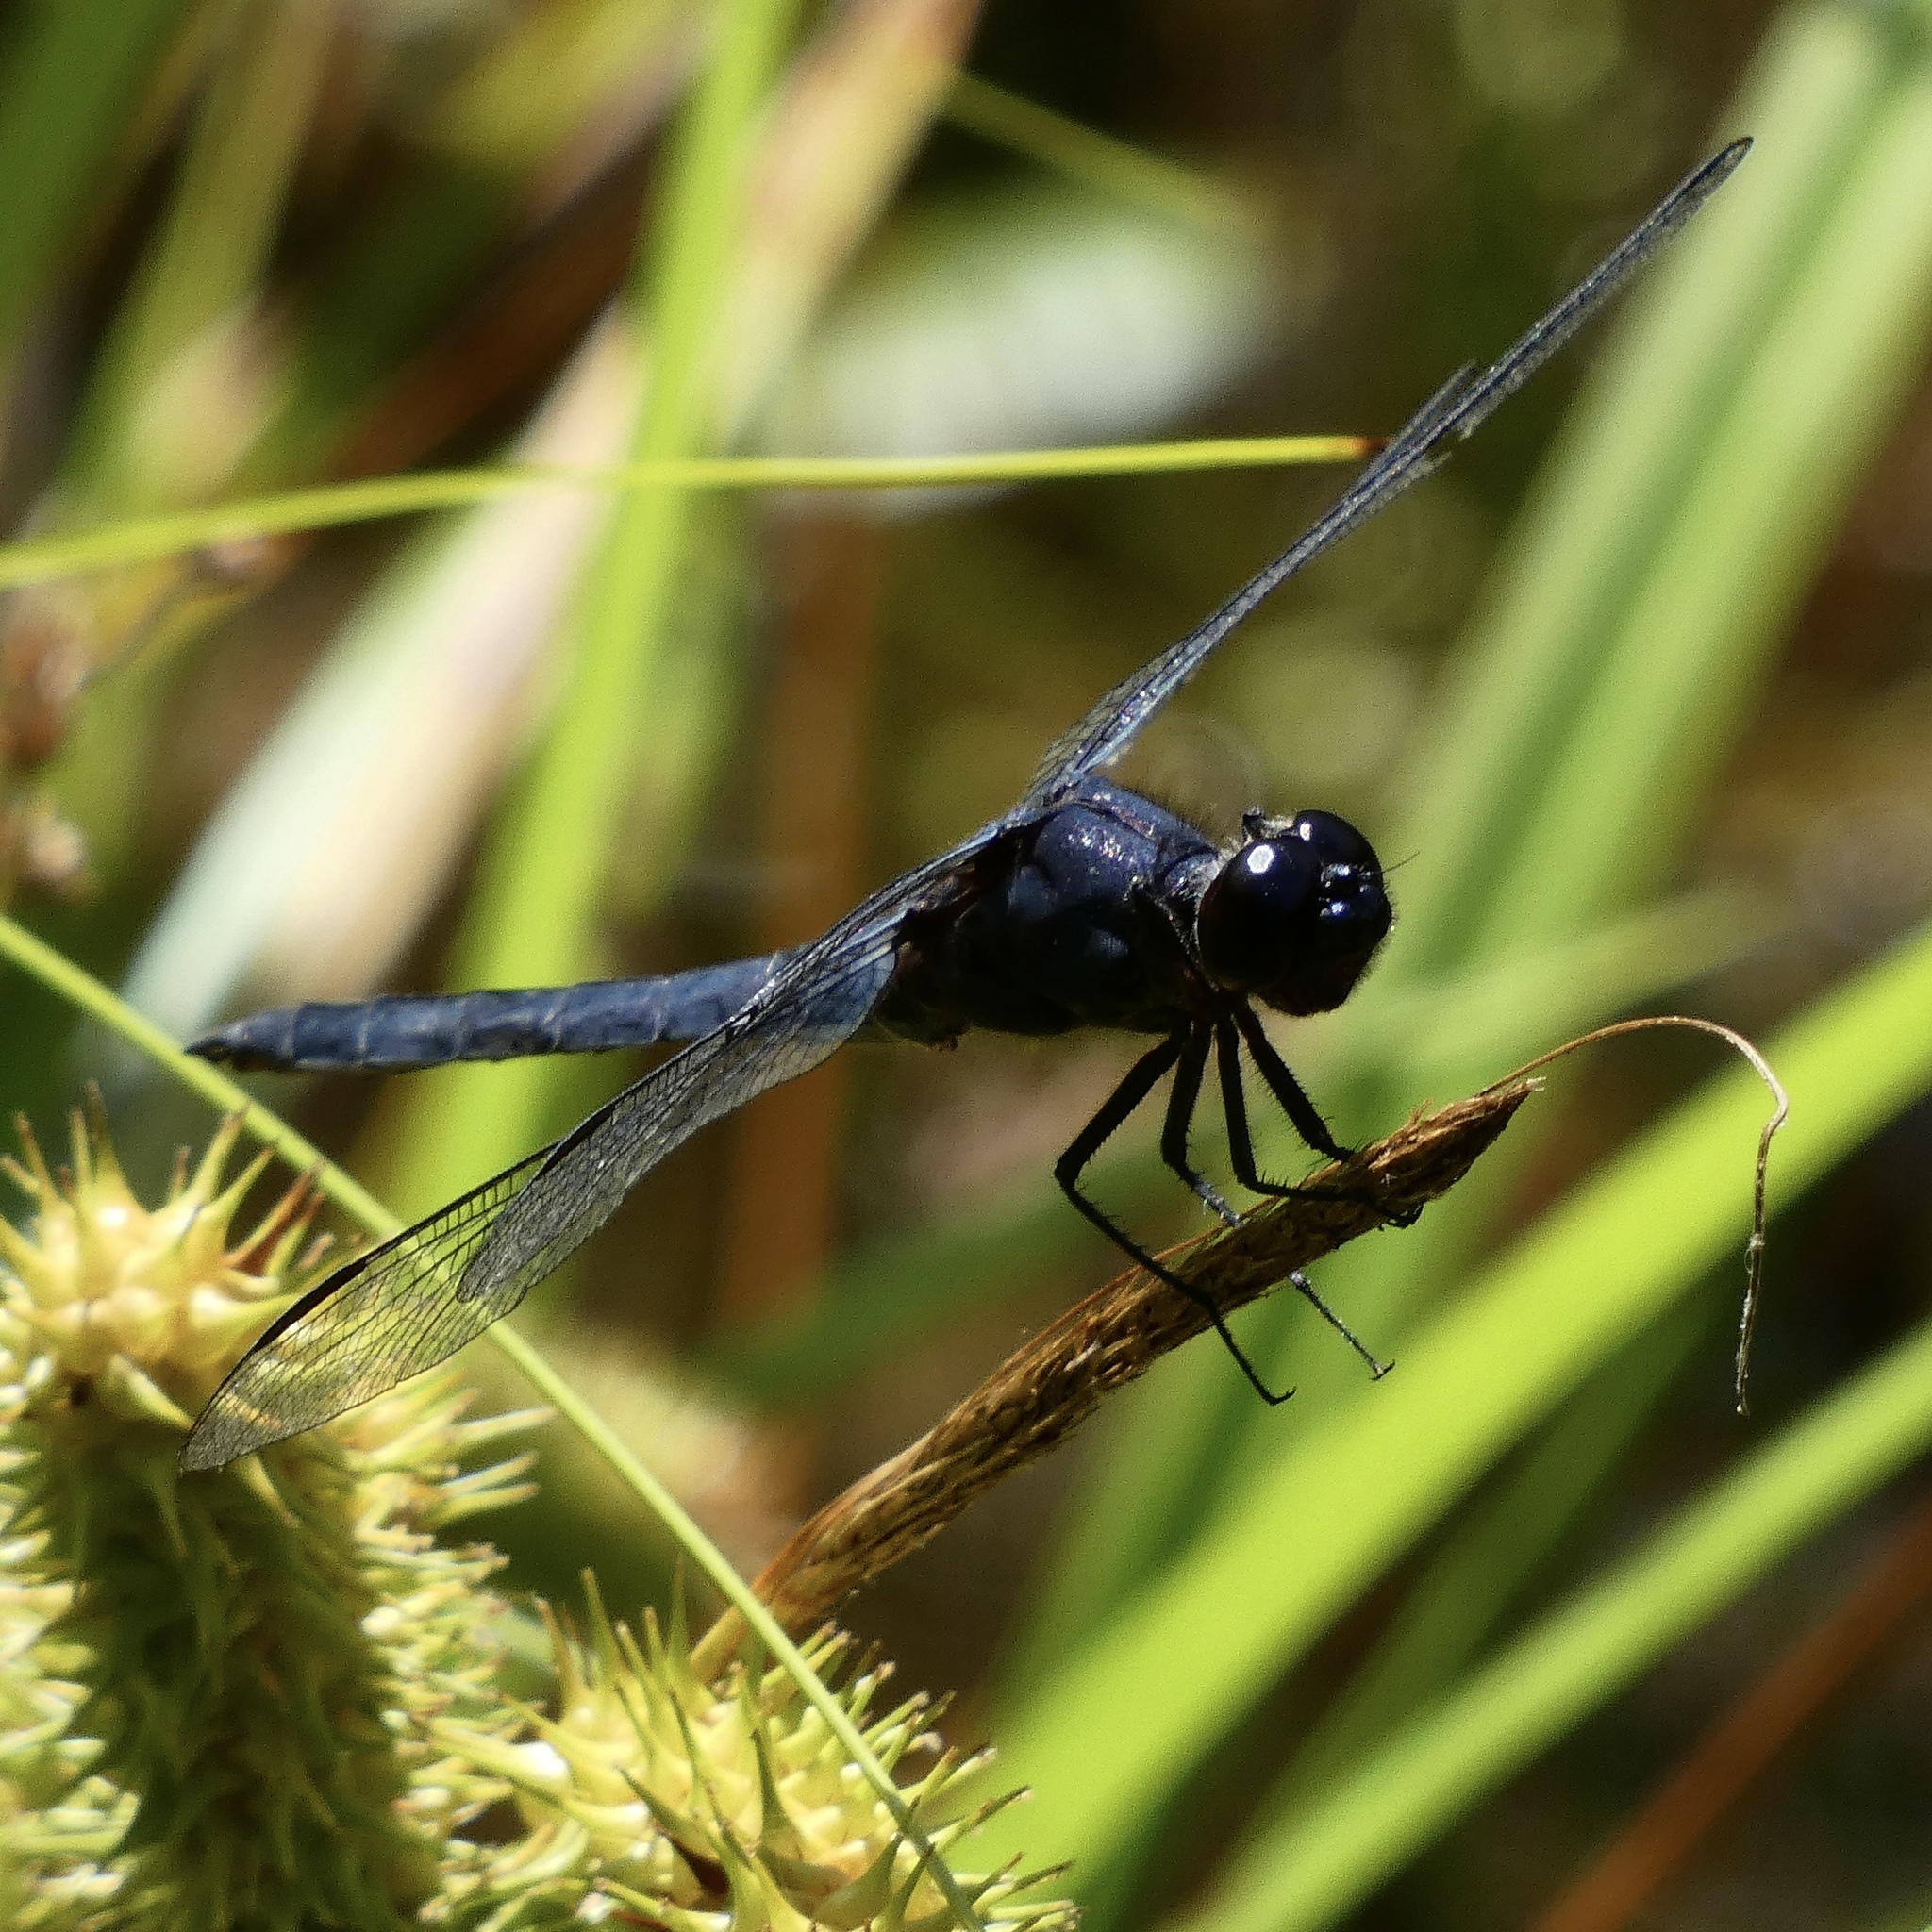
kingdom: Animalia
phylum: Arthropoda
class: Insecta
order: Odonata
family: Libellulidae
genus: Libellula
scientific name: Libellula incesta
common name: Slaty skimmer
